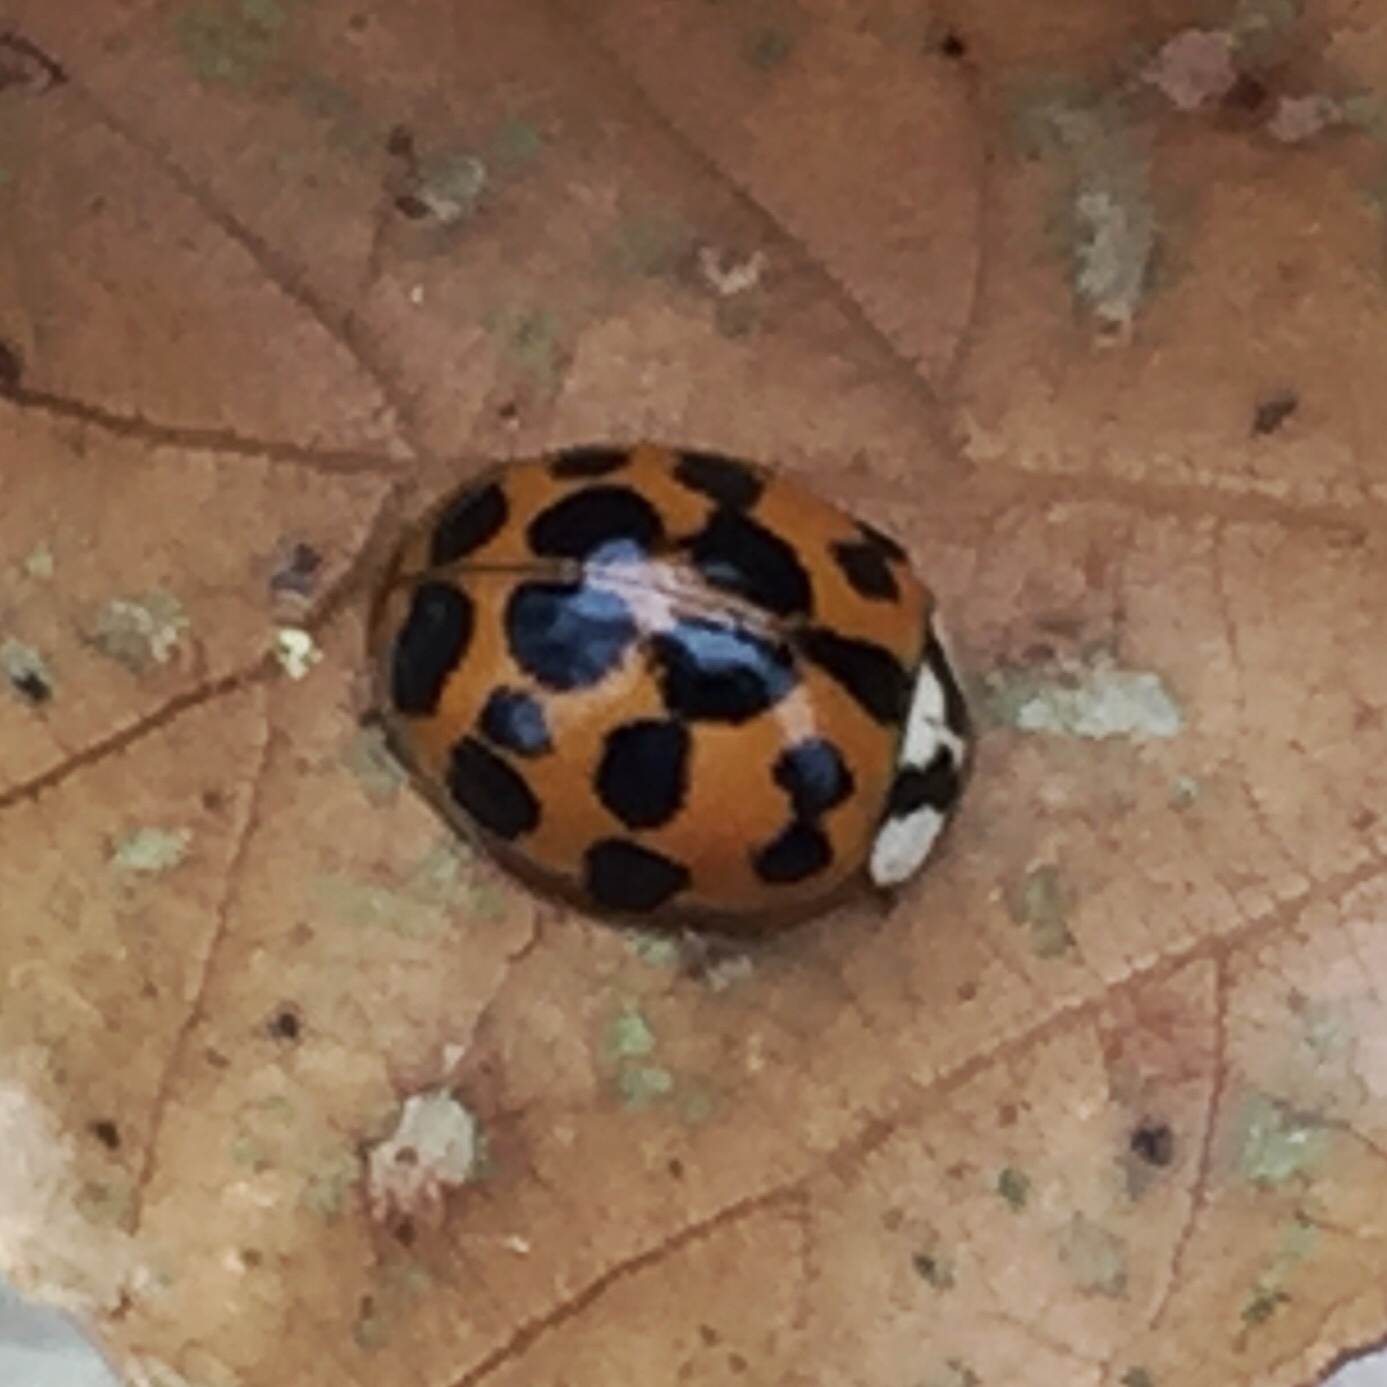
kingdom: Animalia
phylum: Arthropoda
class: Insecta
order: Coleoptera
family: Coccinellidae
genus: Harmonia
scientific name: Harmonia axyridis
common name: Harlequin ladybird
